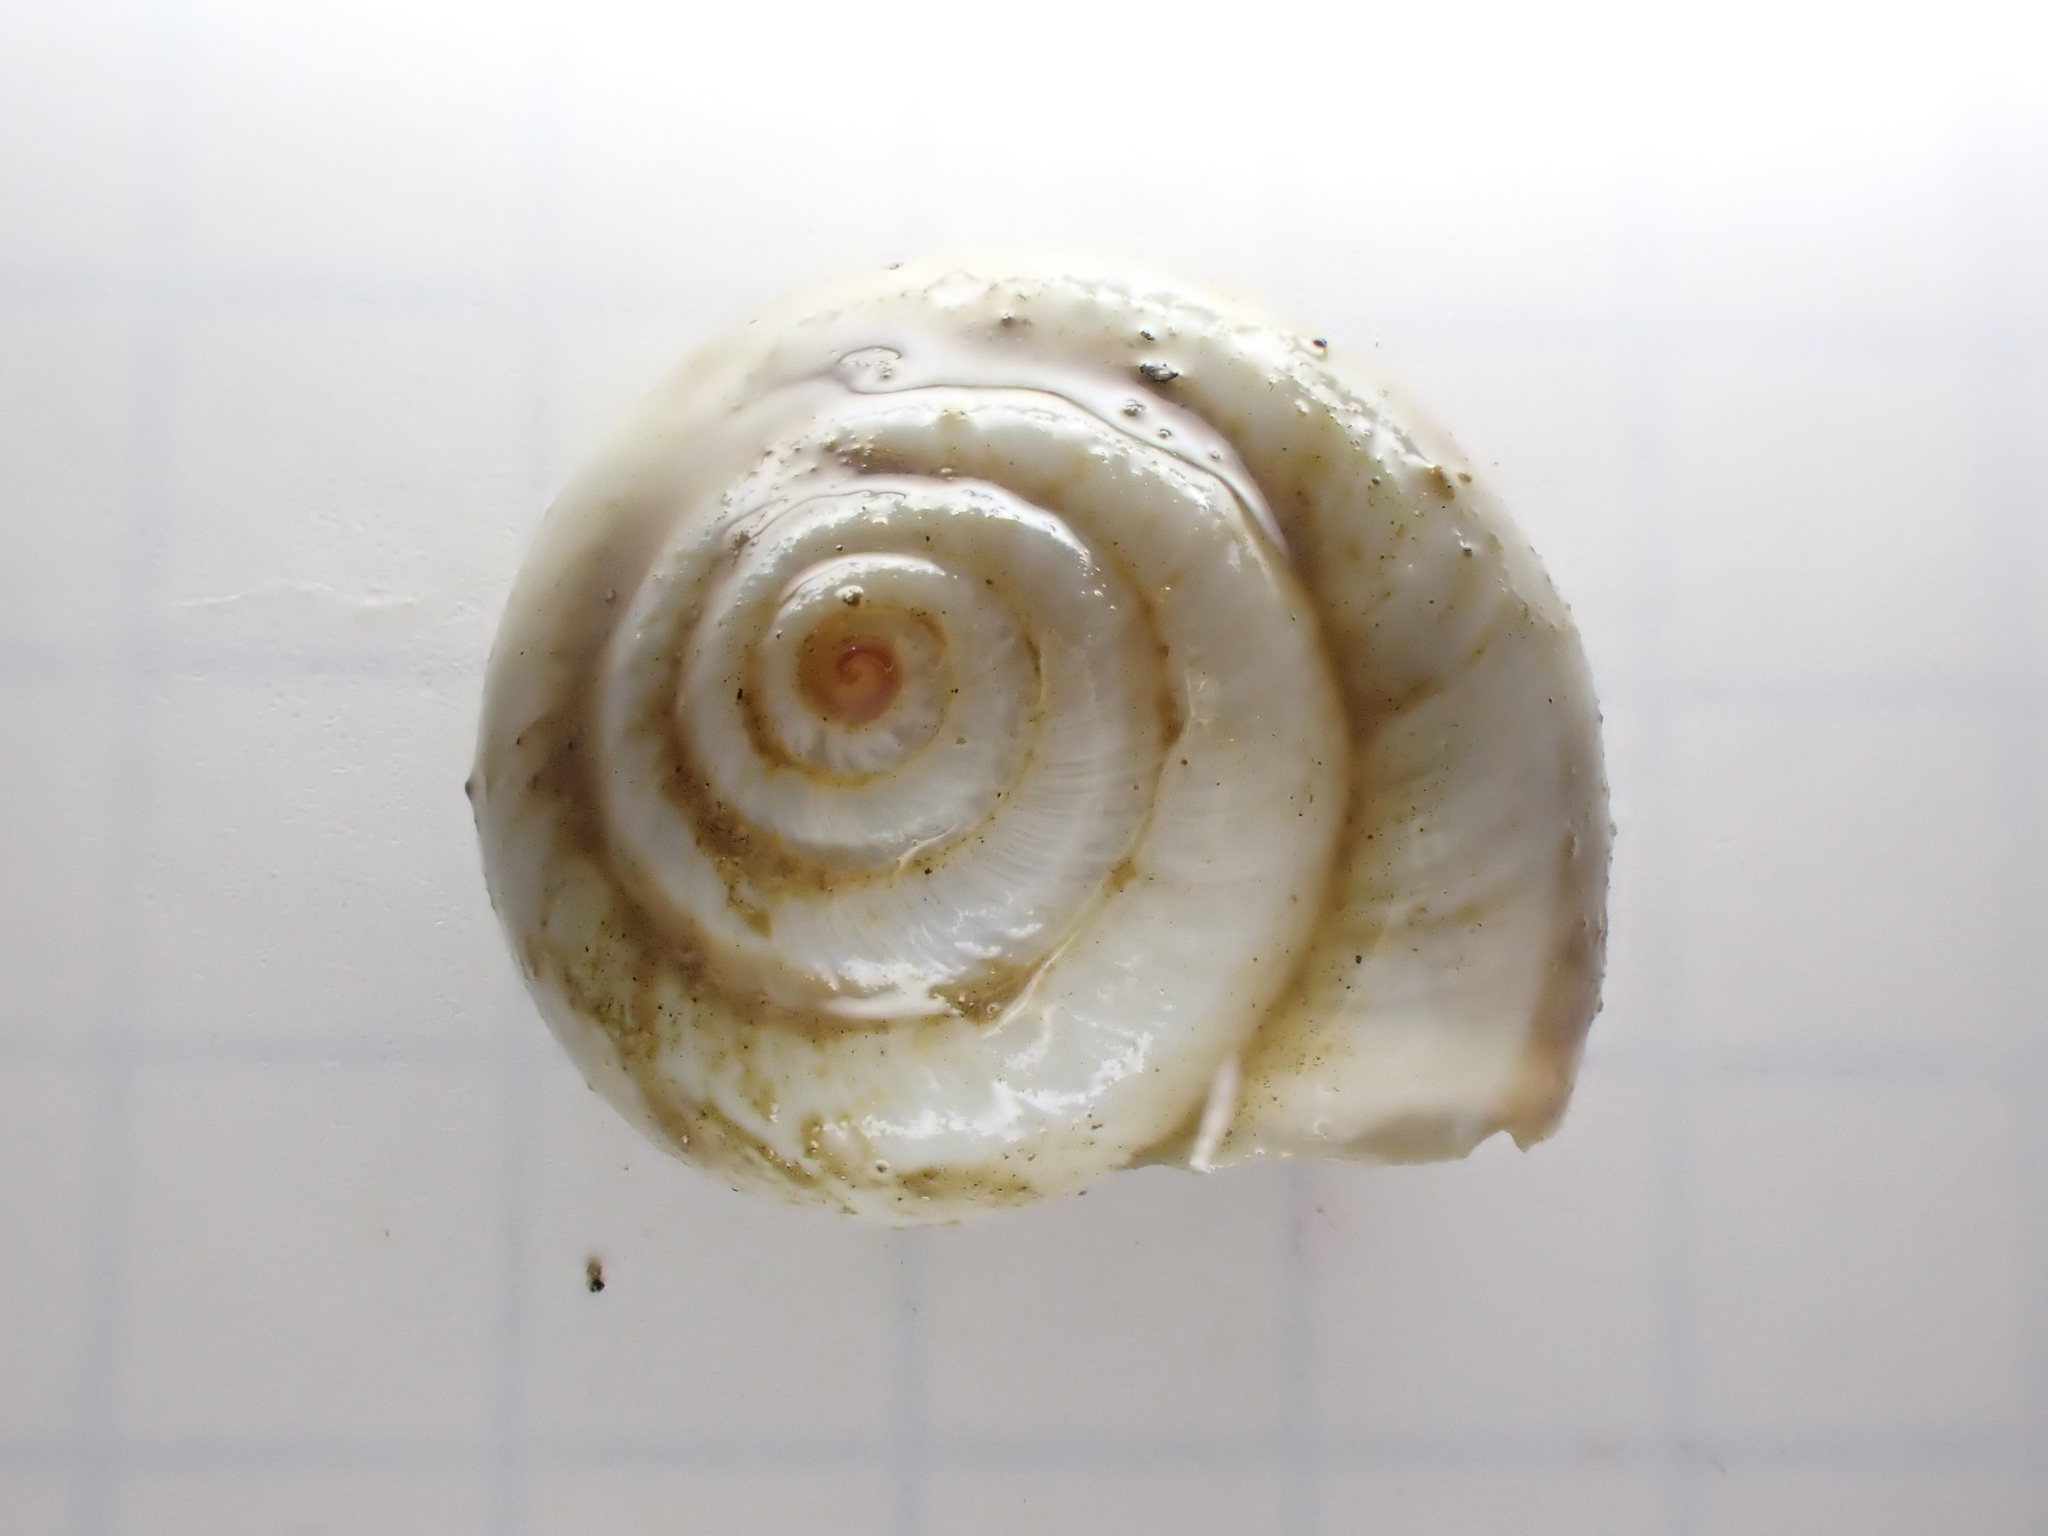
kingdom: Animalia
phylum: Mollusca
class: Gastropoda
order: Stylommatophora
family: Geomitridae
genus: Cernuella
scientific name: Cernuella virgata
